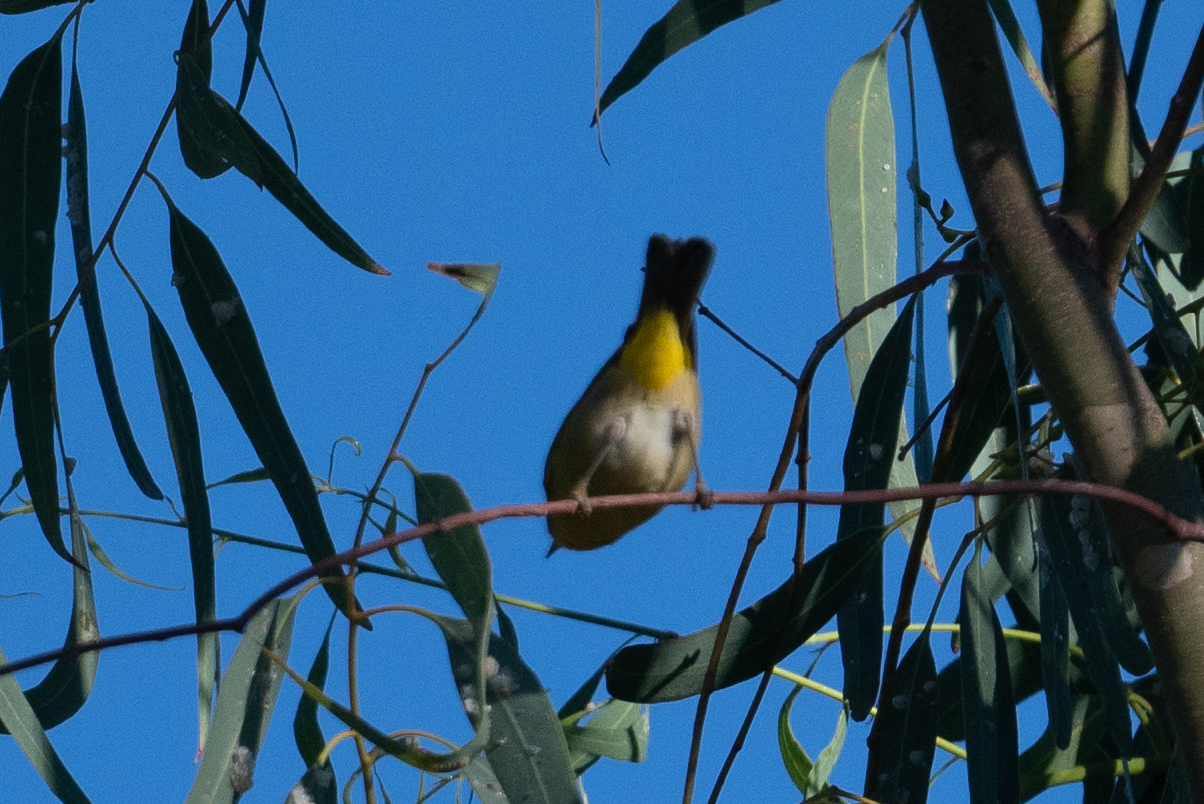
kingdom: Animalia
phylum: Chordata
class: Aves
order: Passeriformes
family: Parulidae
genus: Leiothlypis
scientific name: Leiothlypis ruficapilla
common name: Nashville warbler
